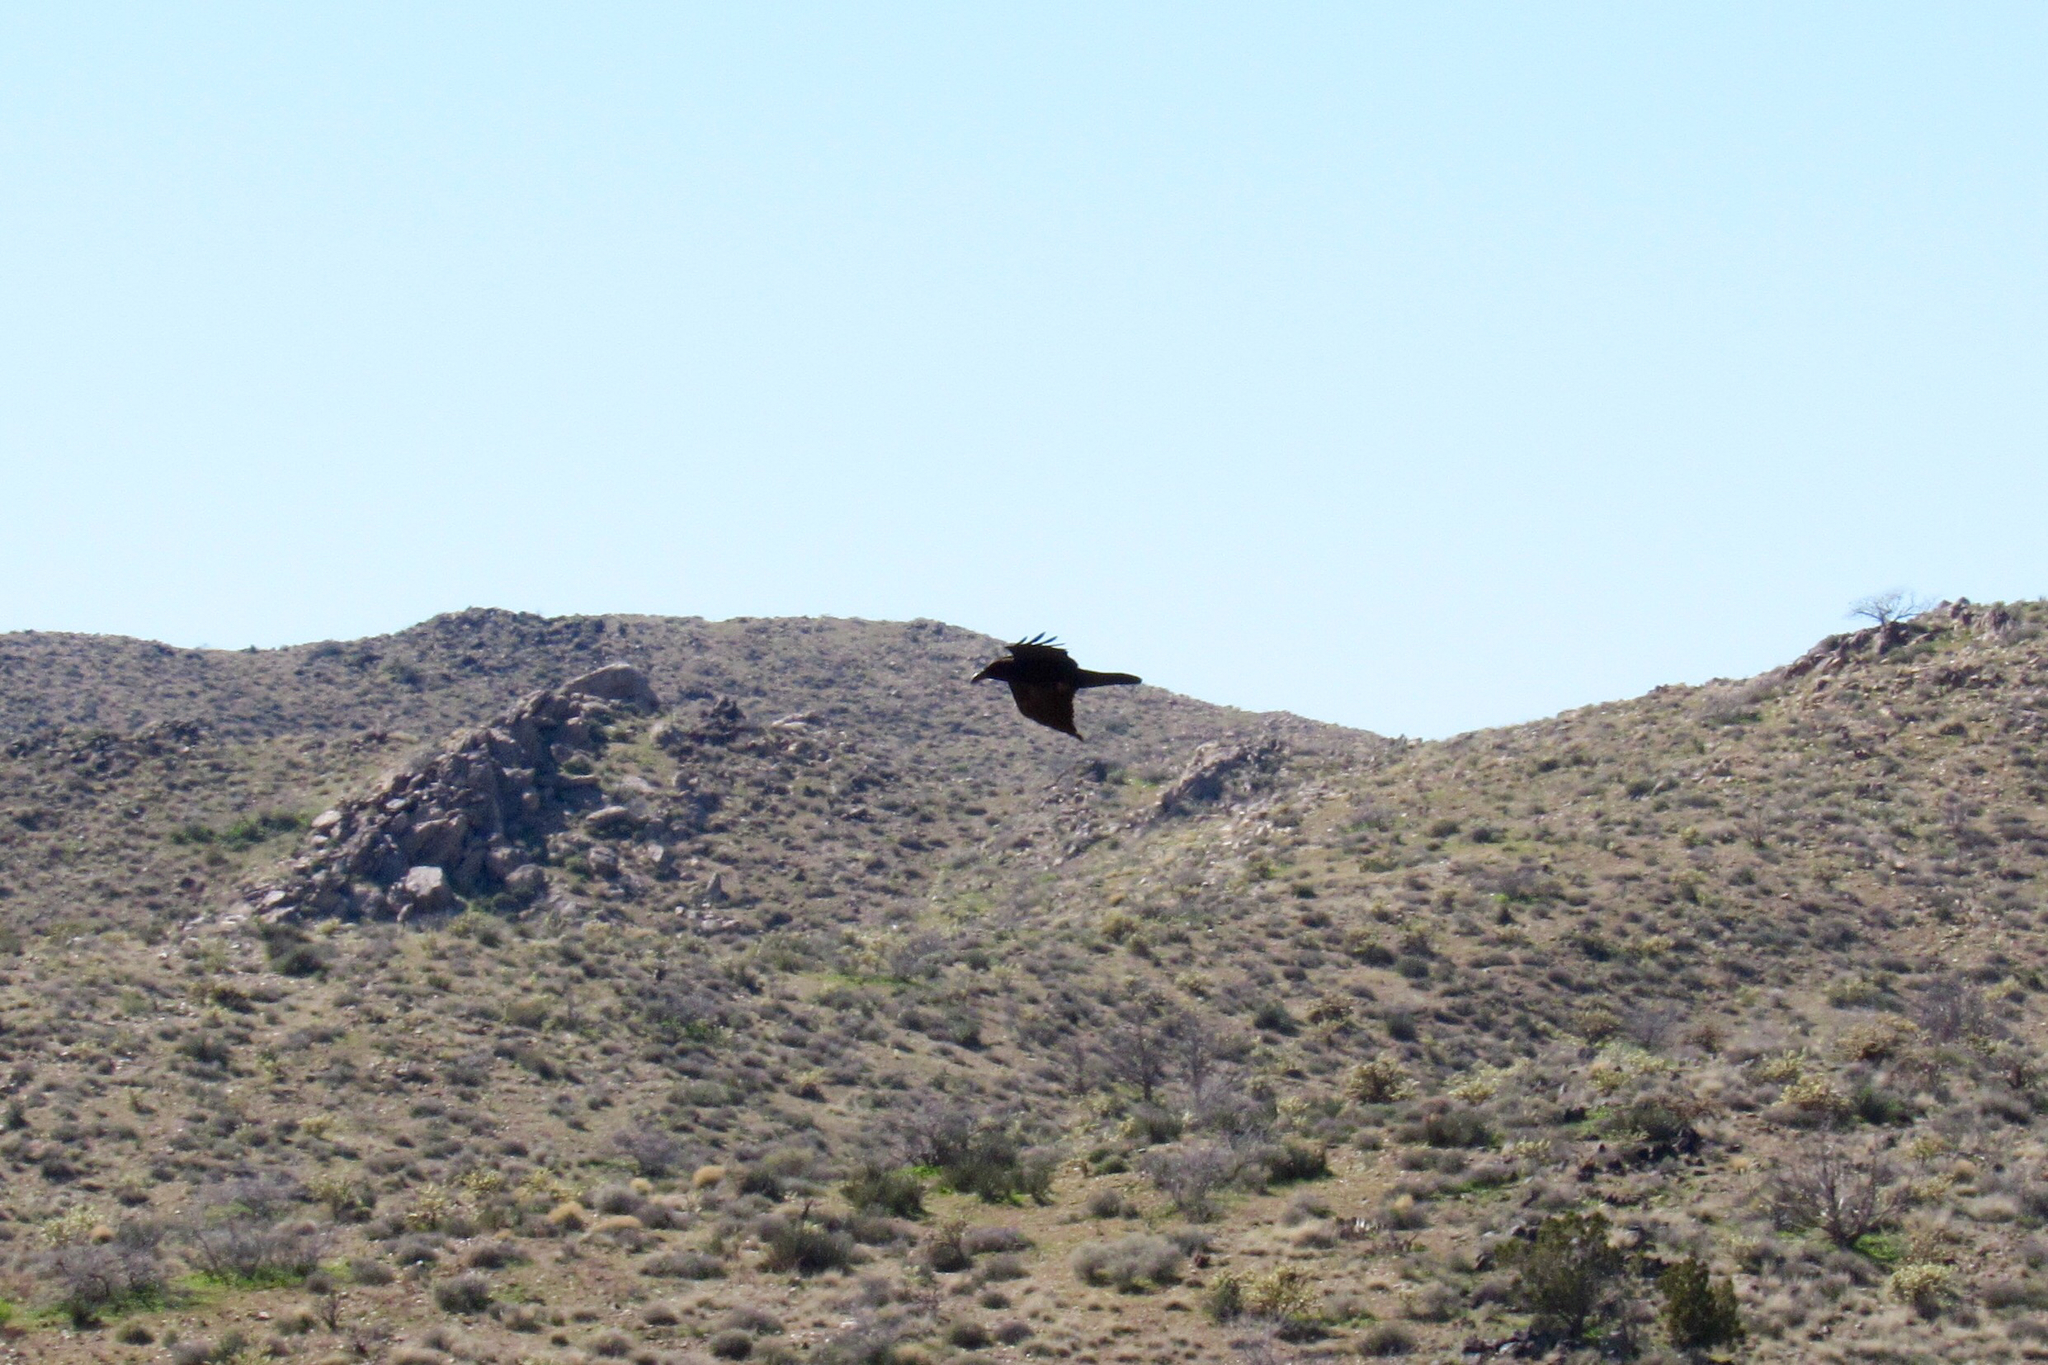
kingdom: Animalia
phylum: Chordata
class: Aves
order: Passeriformes
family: Corvidae
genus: Corvus
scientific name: Corvus corax
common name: Common raven
